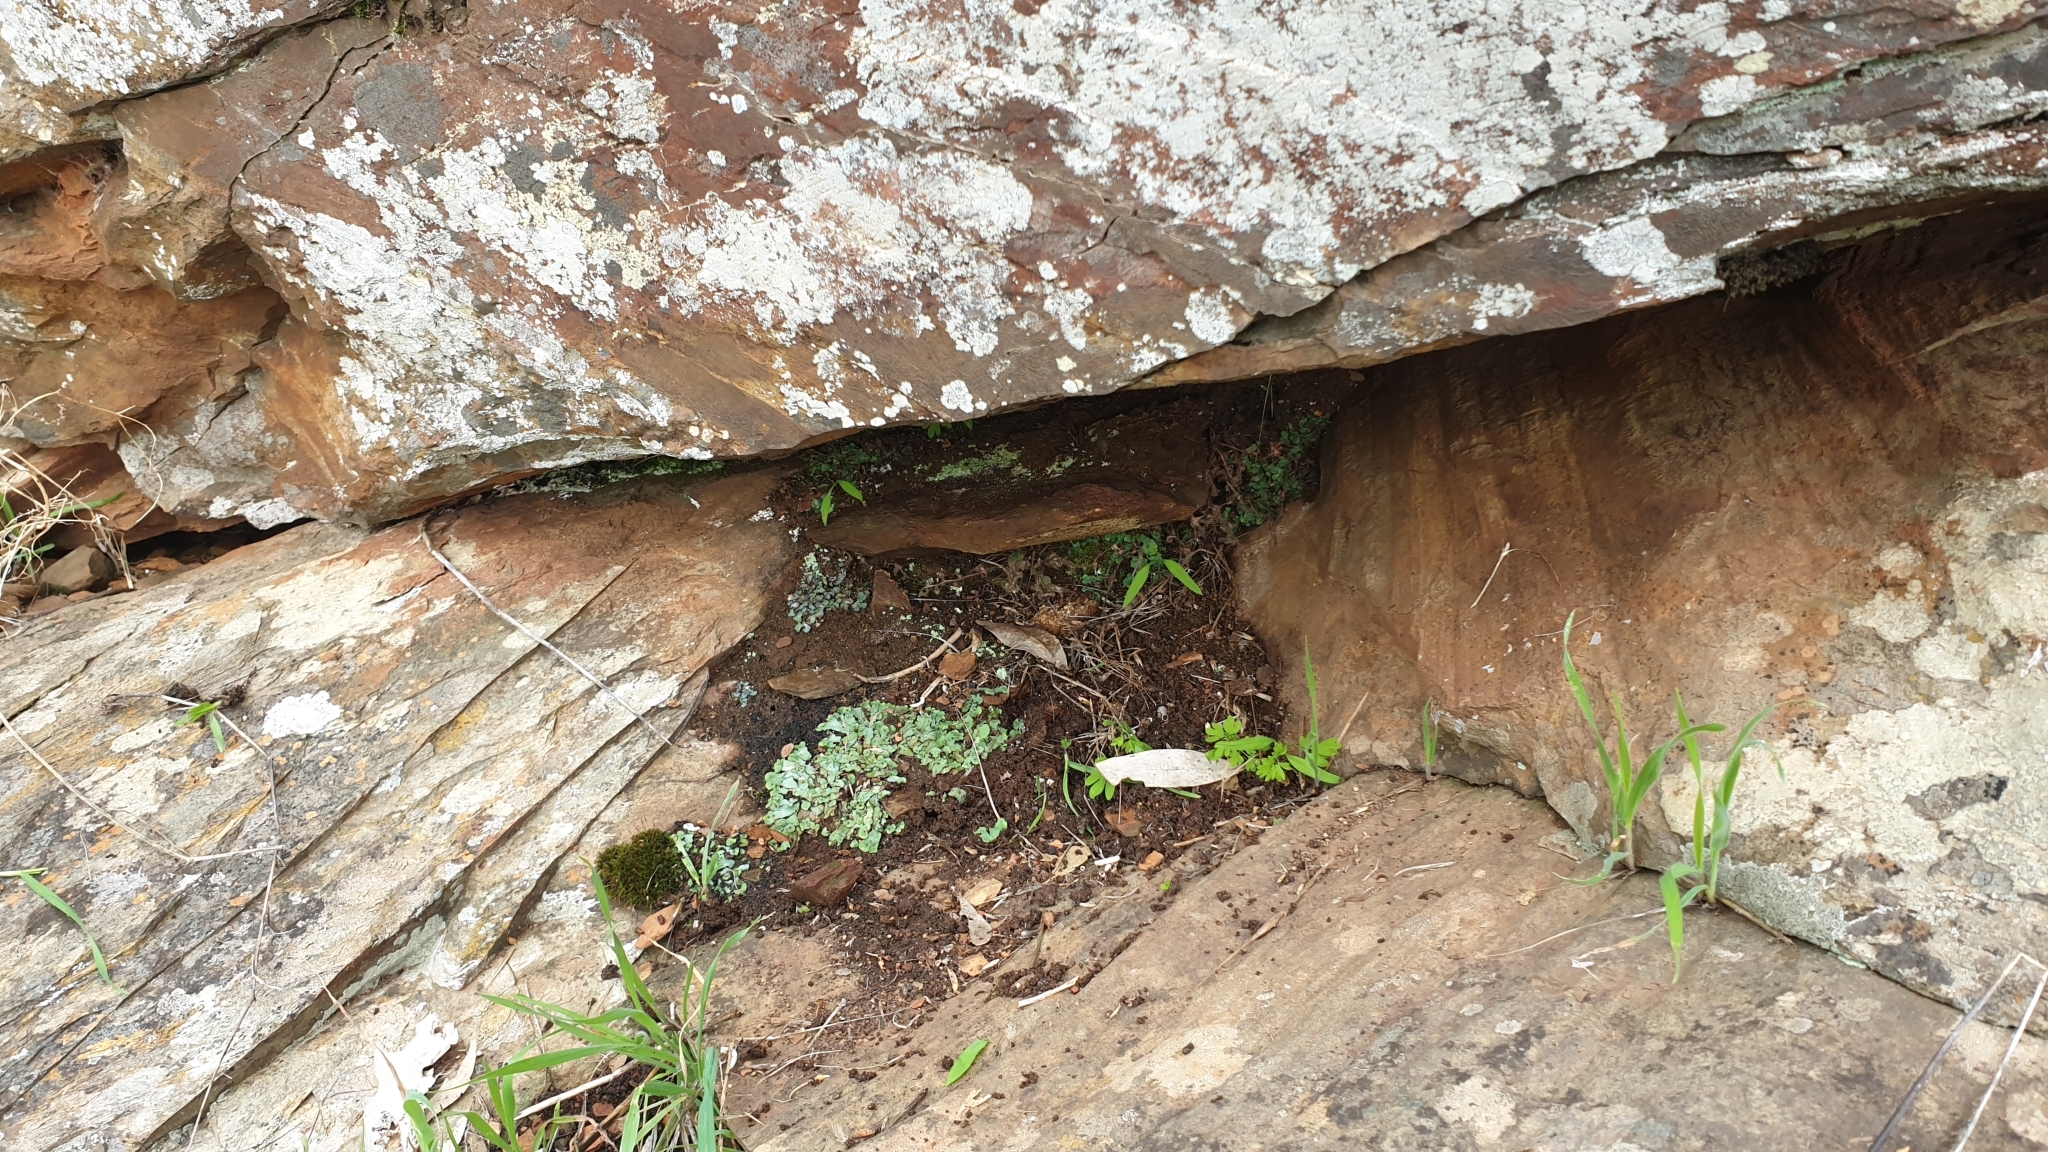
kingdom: Plantae
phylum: Marchantiophyta
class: Marchantiopsida
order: Marchantiales
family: Aytoniaceae
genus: Plagiochasma
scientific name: Plagiochasma rupestre
